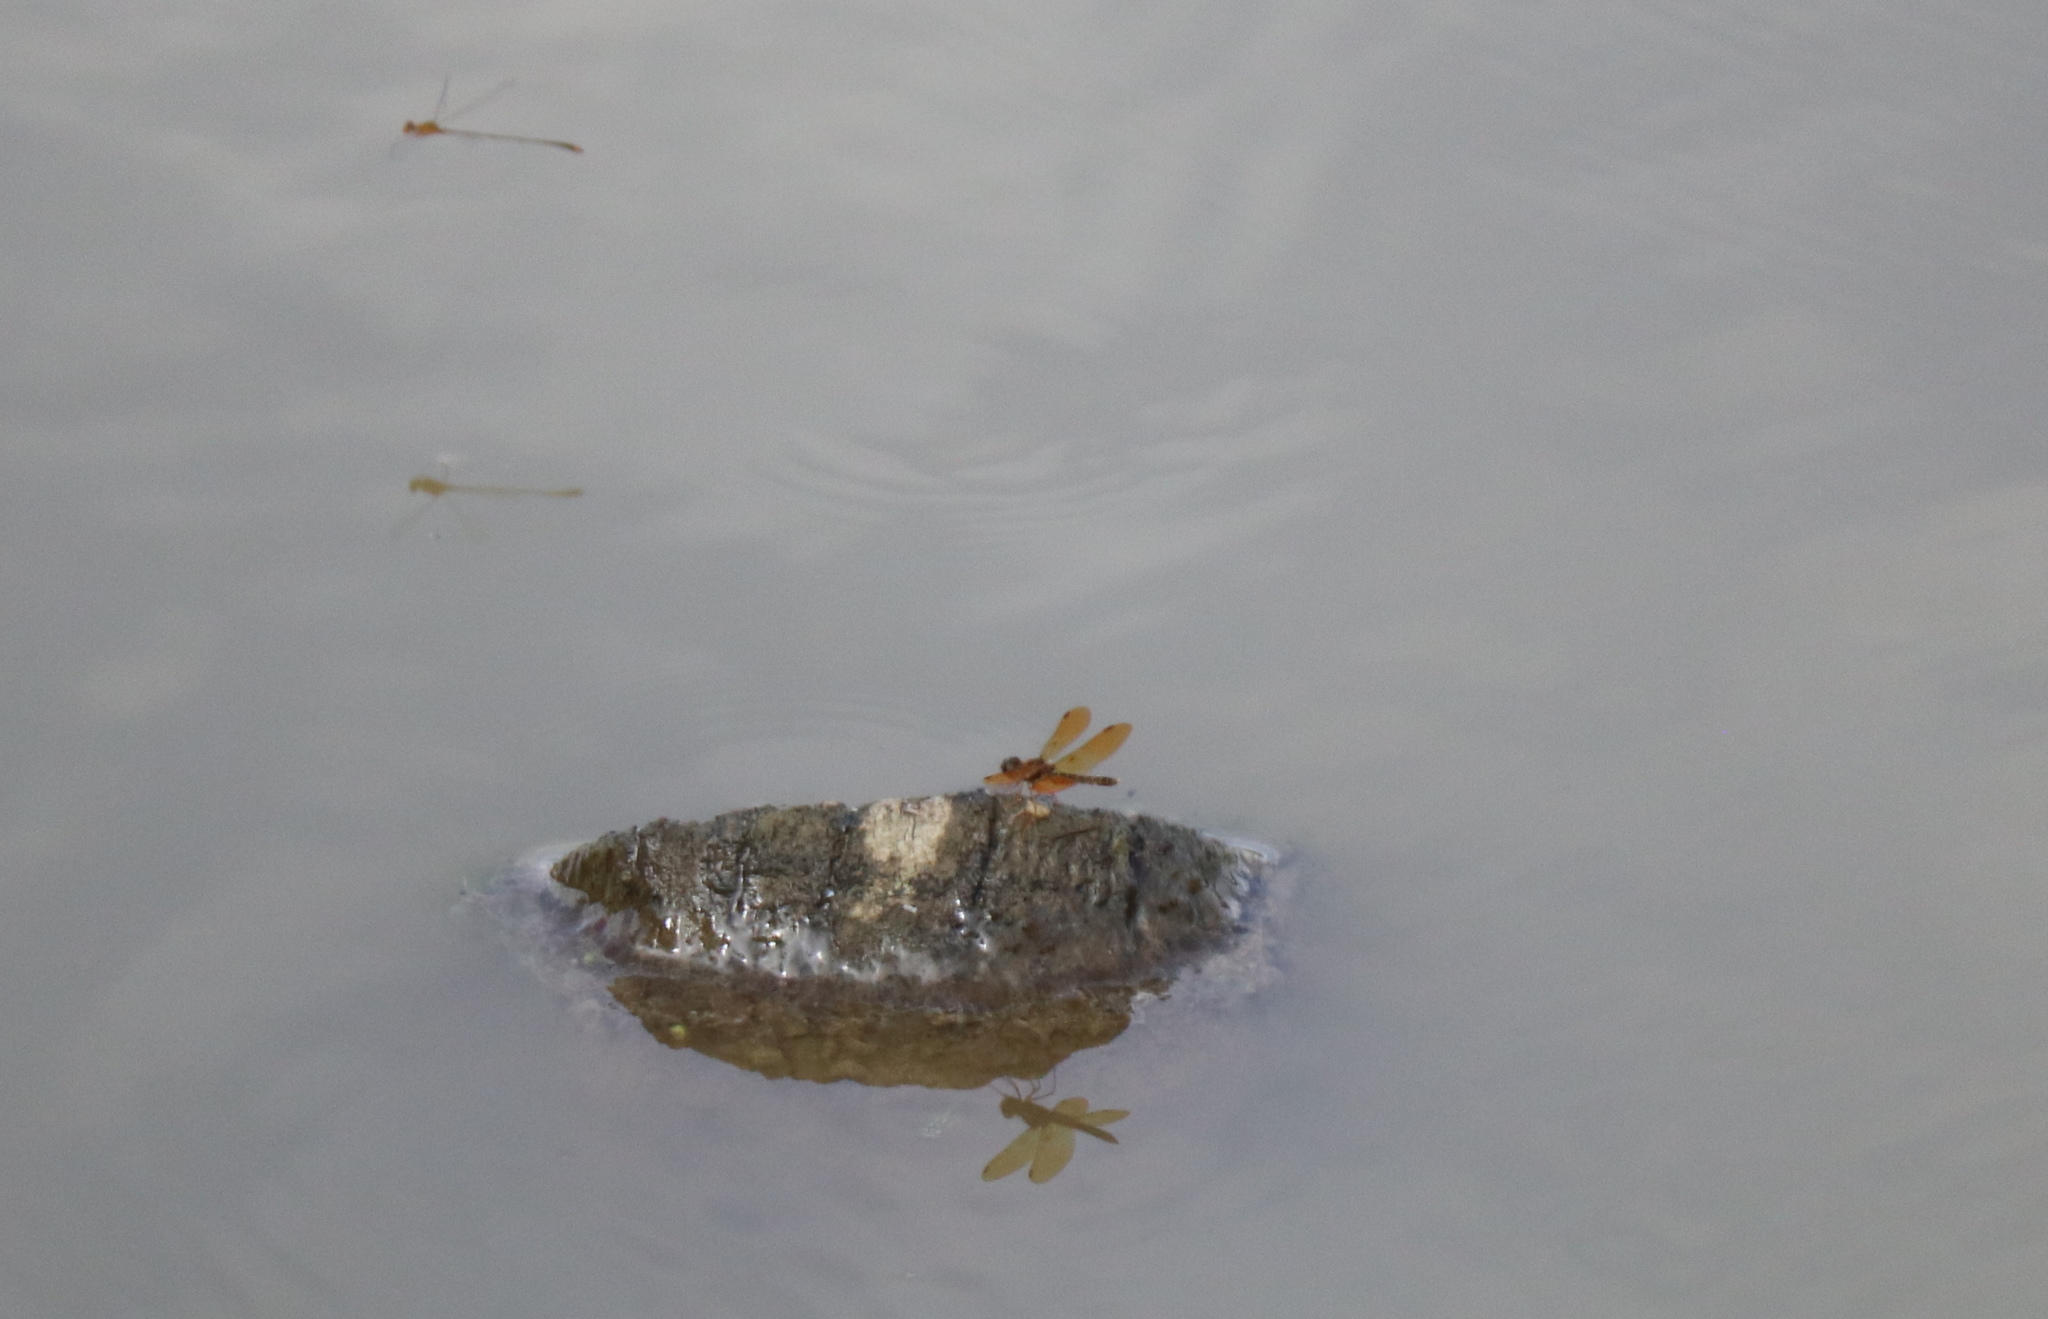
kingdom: Animalia
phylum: Arthropoda
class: Insecta
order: Odonata
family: Libellulidae
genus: Perithemis
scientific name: Perithemis tenera
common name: Eastern amberwing
